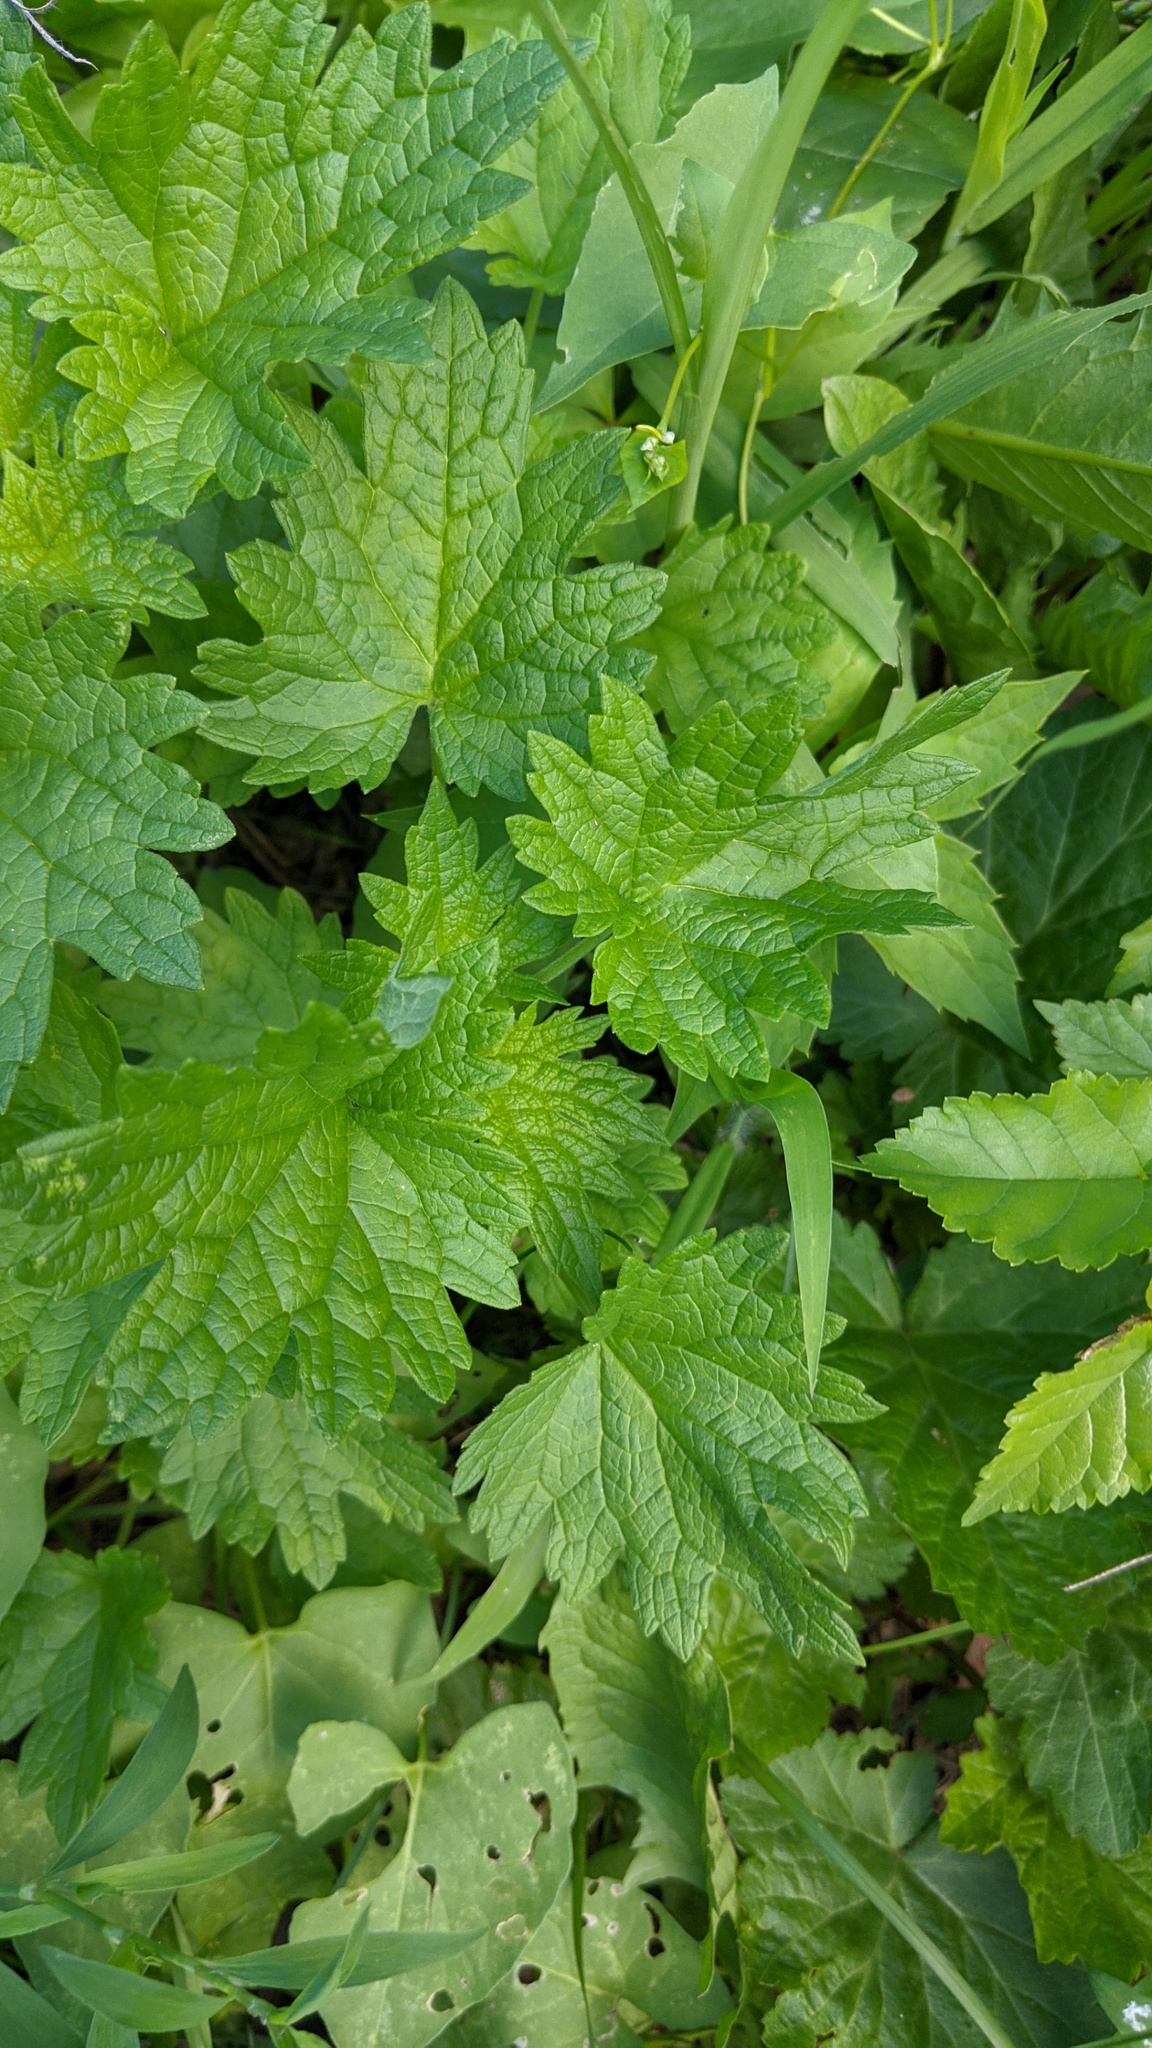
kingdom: Plantae
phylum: Tracheophyta
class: Magnoliopsida
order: Lamiales
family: Lamiaceae
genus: Leonurus
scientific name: Leonurus cardiaca
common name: Motherwort
